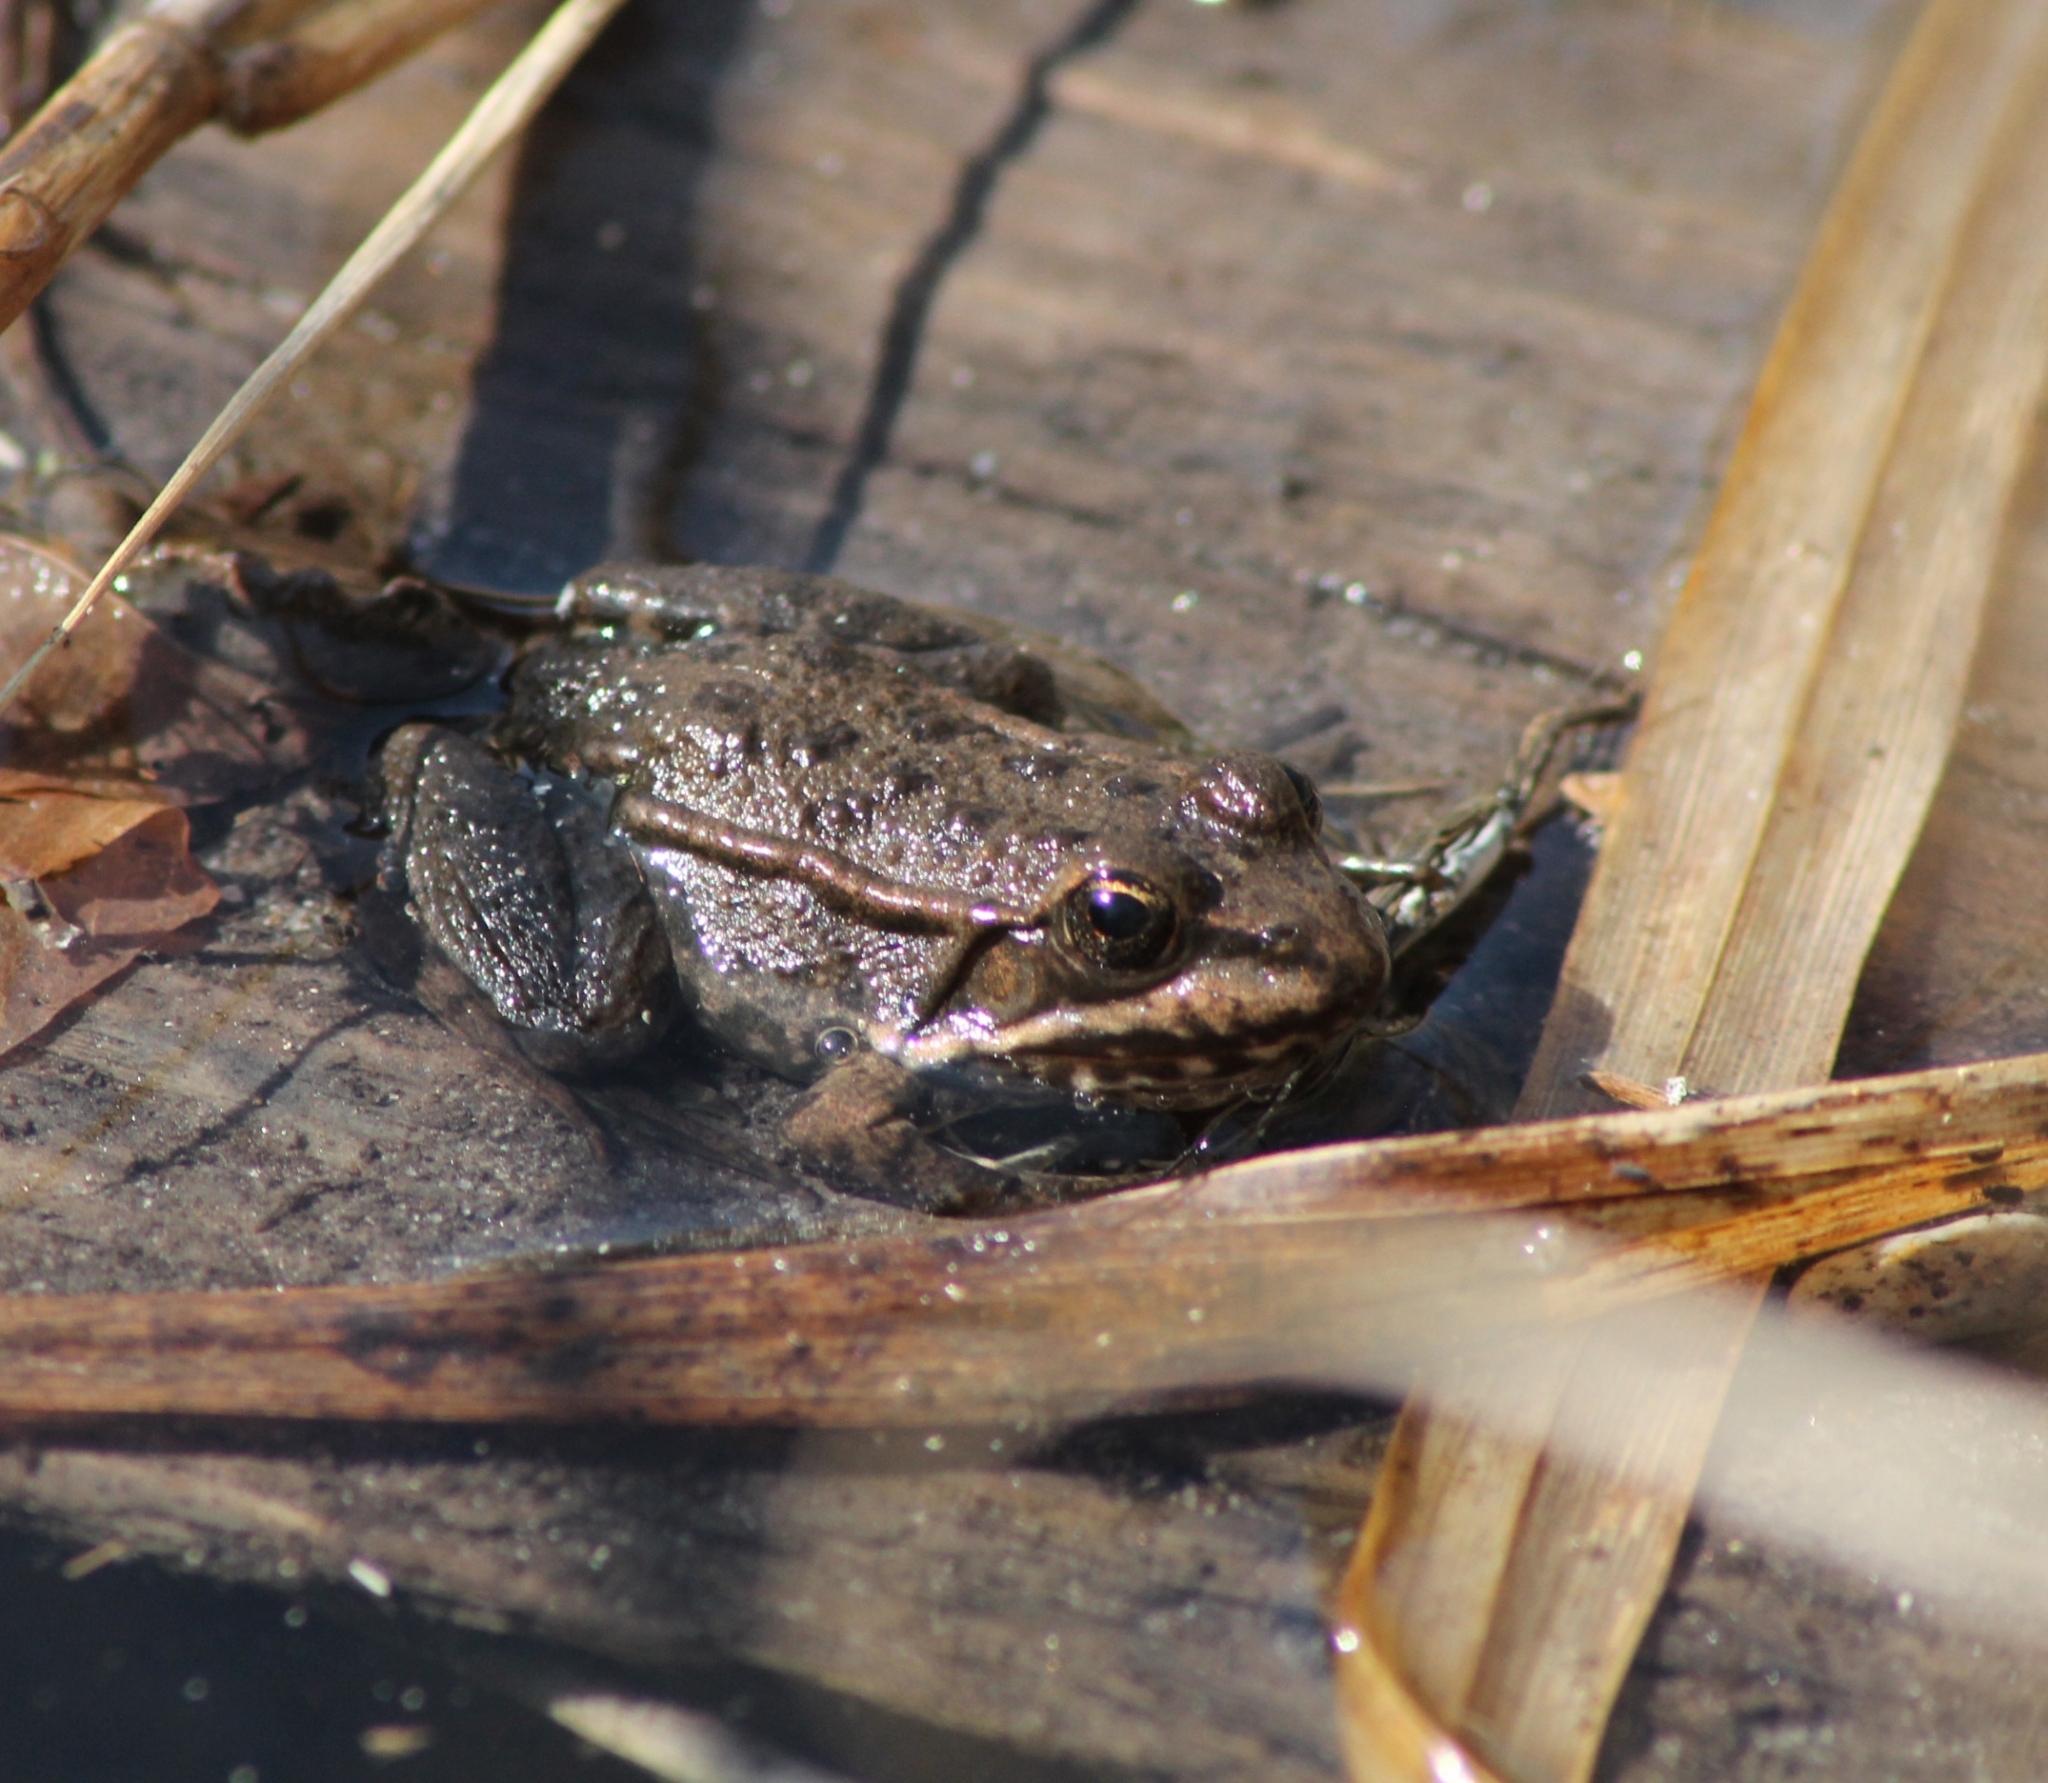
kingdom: Animalia
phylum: Chordata
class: Amphibia
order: Anura
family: Ranidae
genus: Pelophylax
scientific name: Pelophylax
